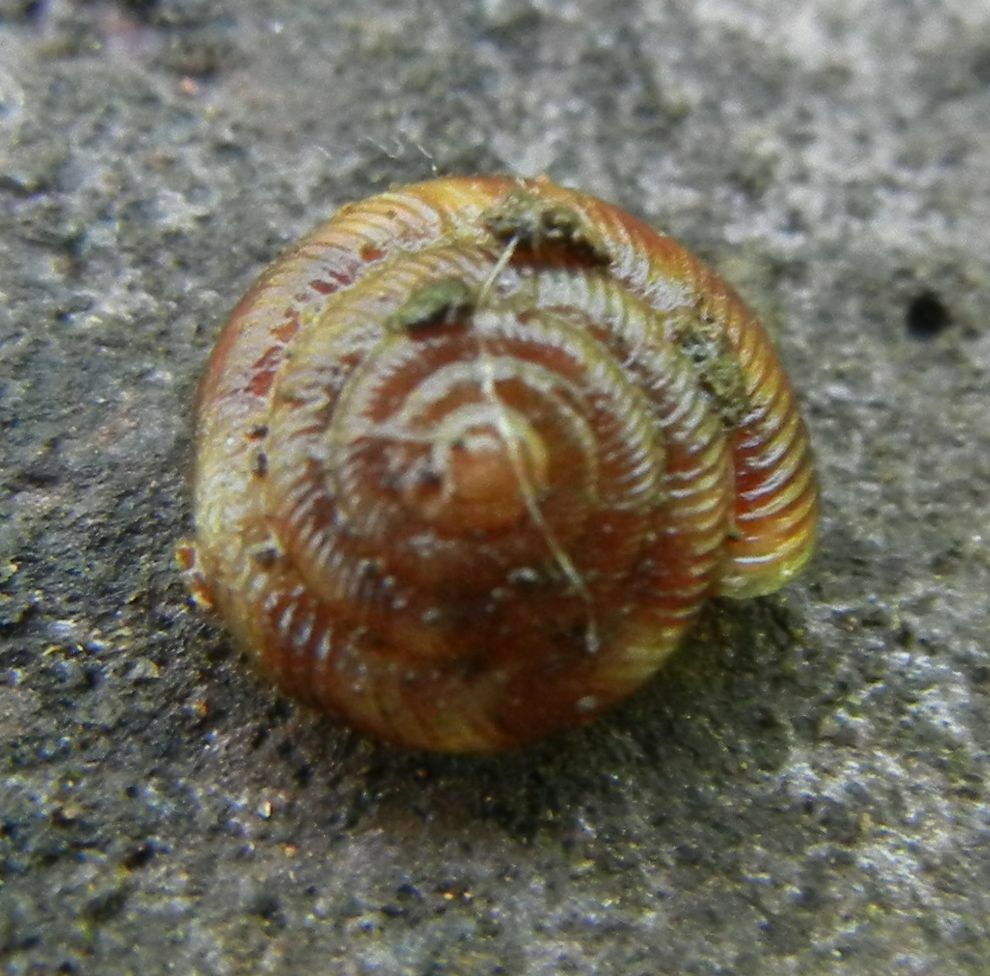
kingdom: Animalia
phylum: Mollusca
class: Gastropoda
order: Stylommatophora
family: Discidae
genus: Discus
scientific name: Discus rotundatus
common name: Rounded snail
